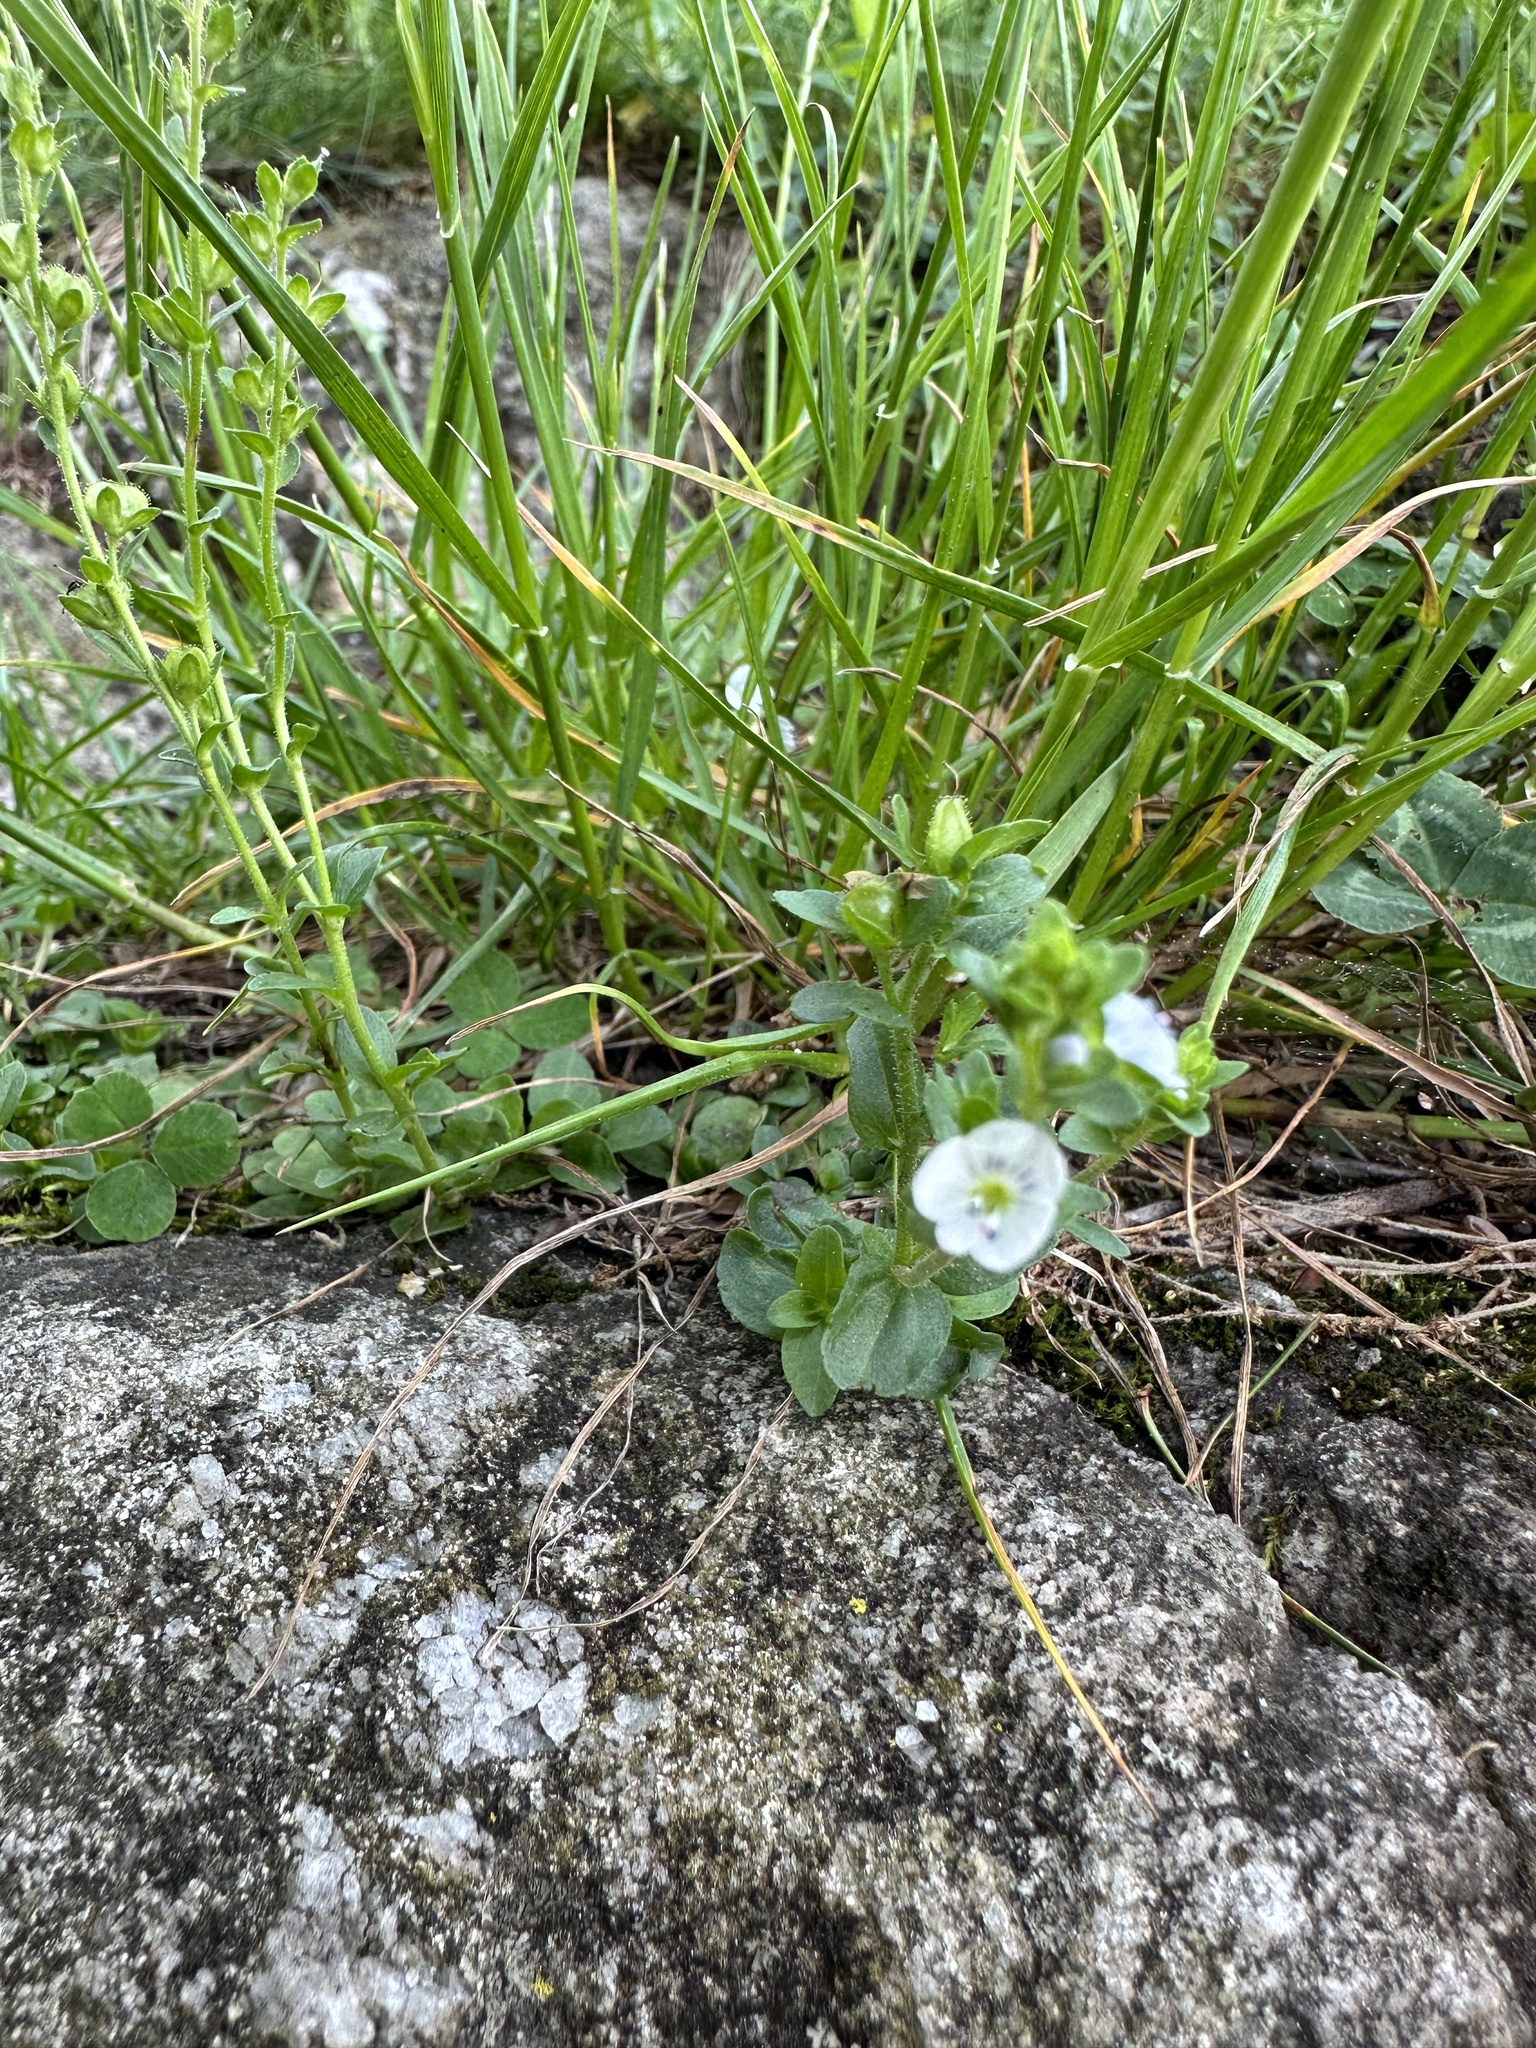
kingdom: Plantae
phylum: Tracheophyta
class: Magnoliopsida
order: Lamiales
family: Plantaginaceae
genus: Veronica
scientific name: Veronica serpyllifolia
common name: Thyme-leaved speedwell
